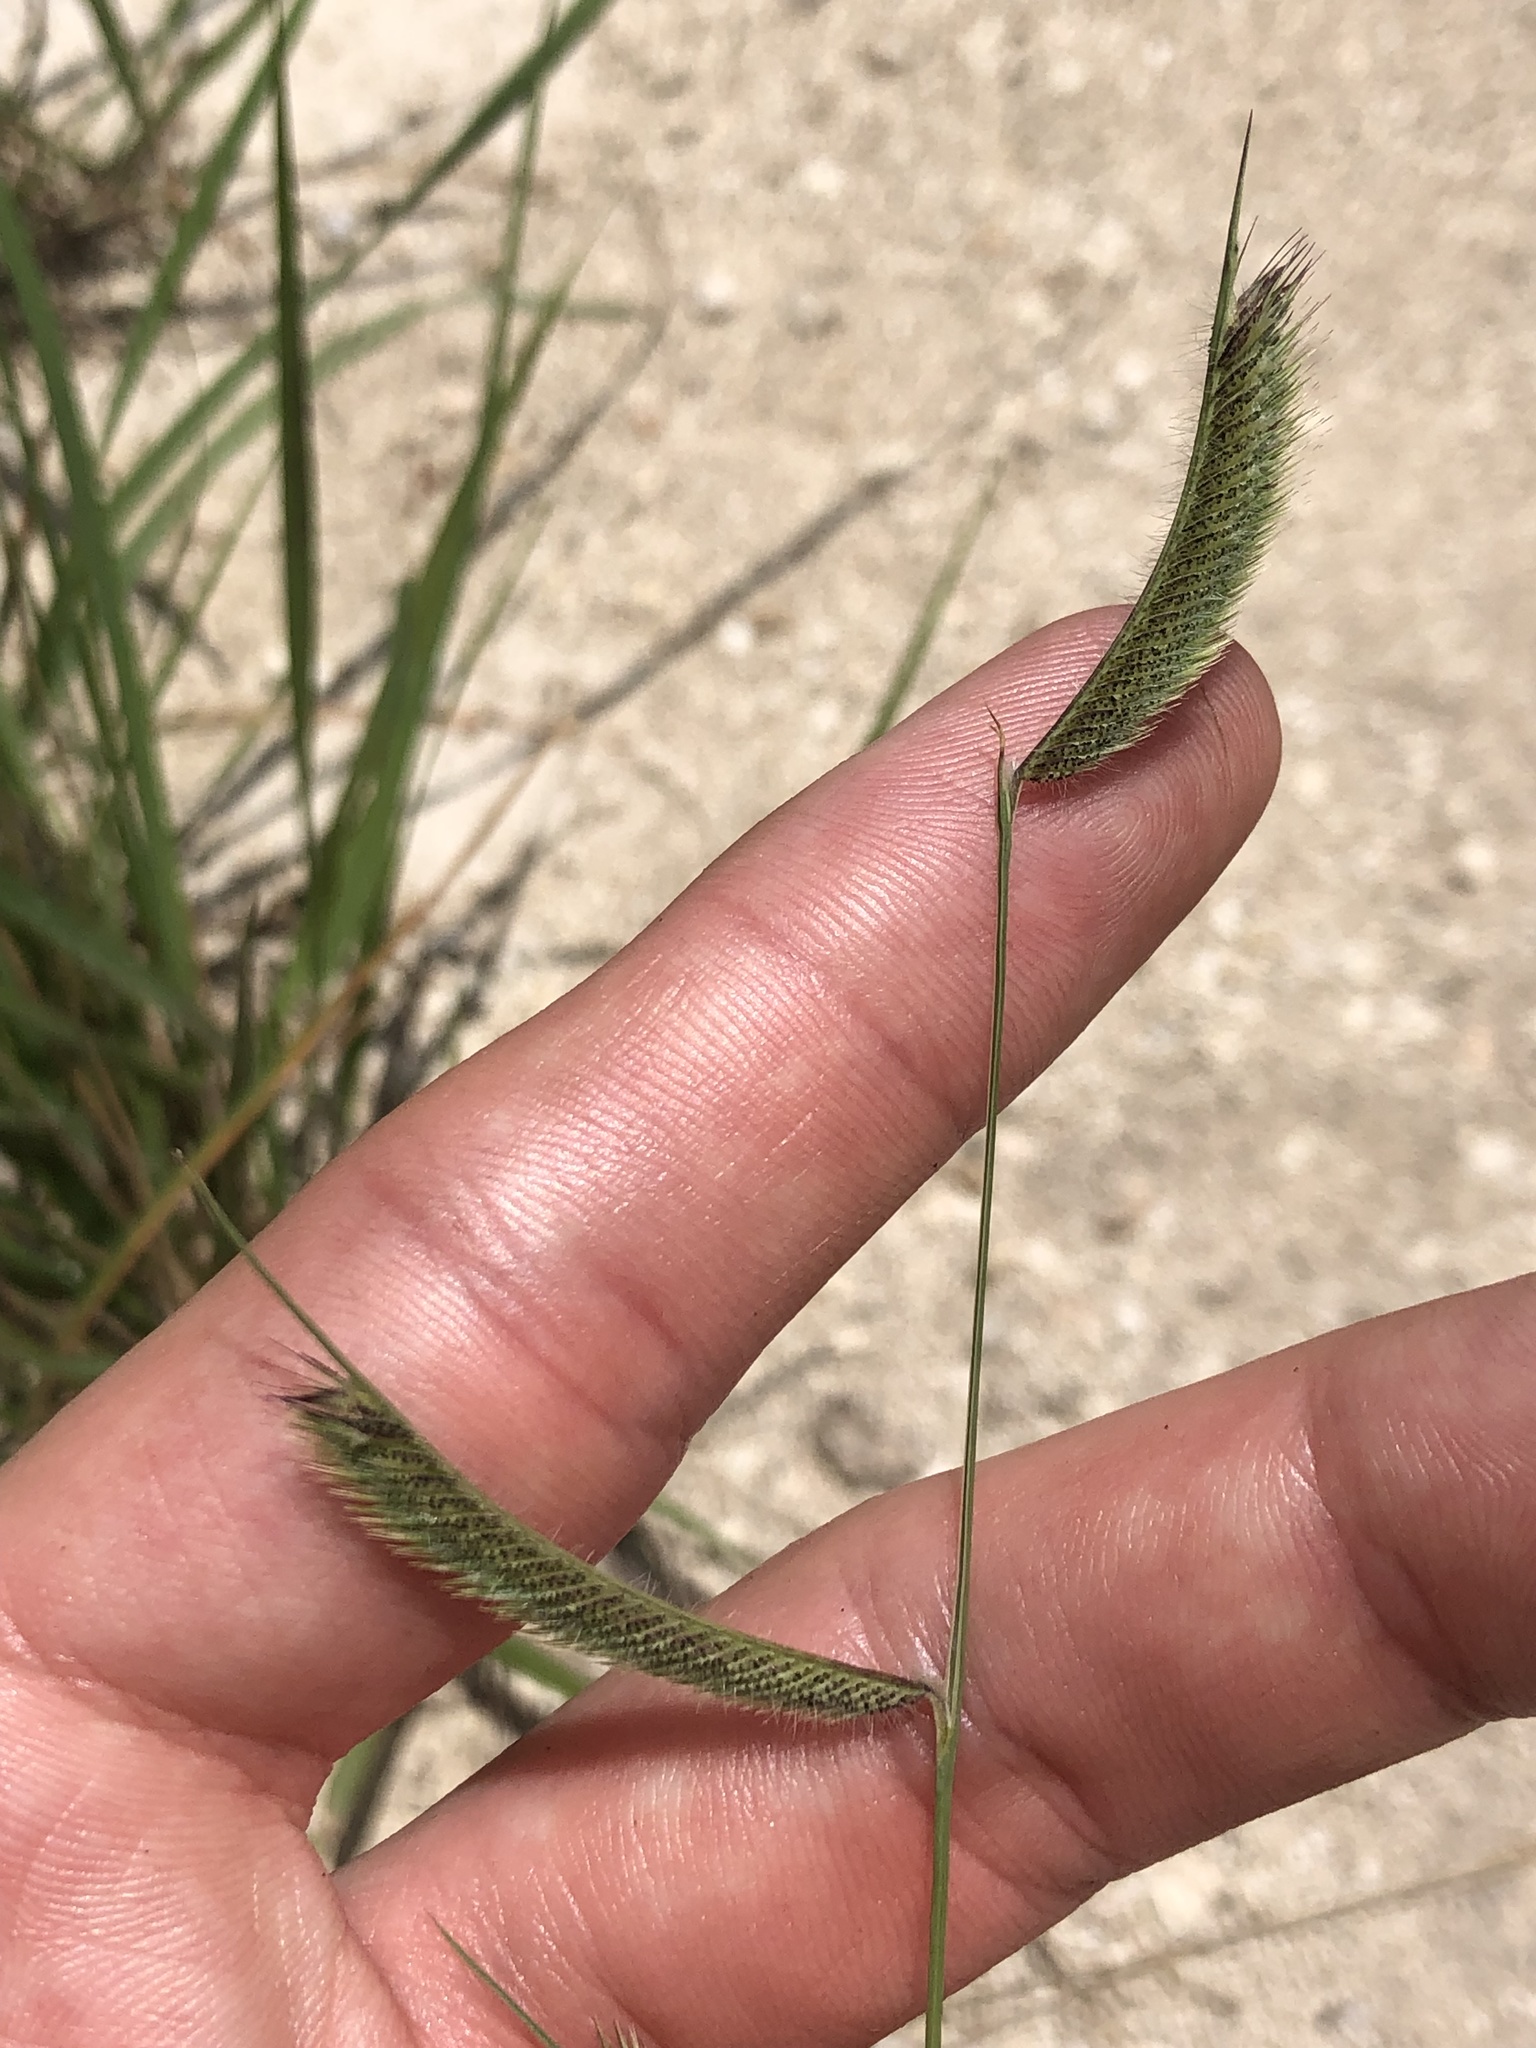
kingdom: Plantae
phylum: Tracheophyta
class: Liliopsida
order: Poales
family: Poaceae
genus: Bouteloua
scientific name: Bouteloua hirsuta
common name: Hairy grama
